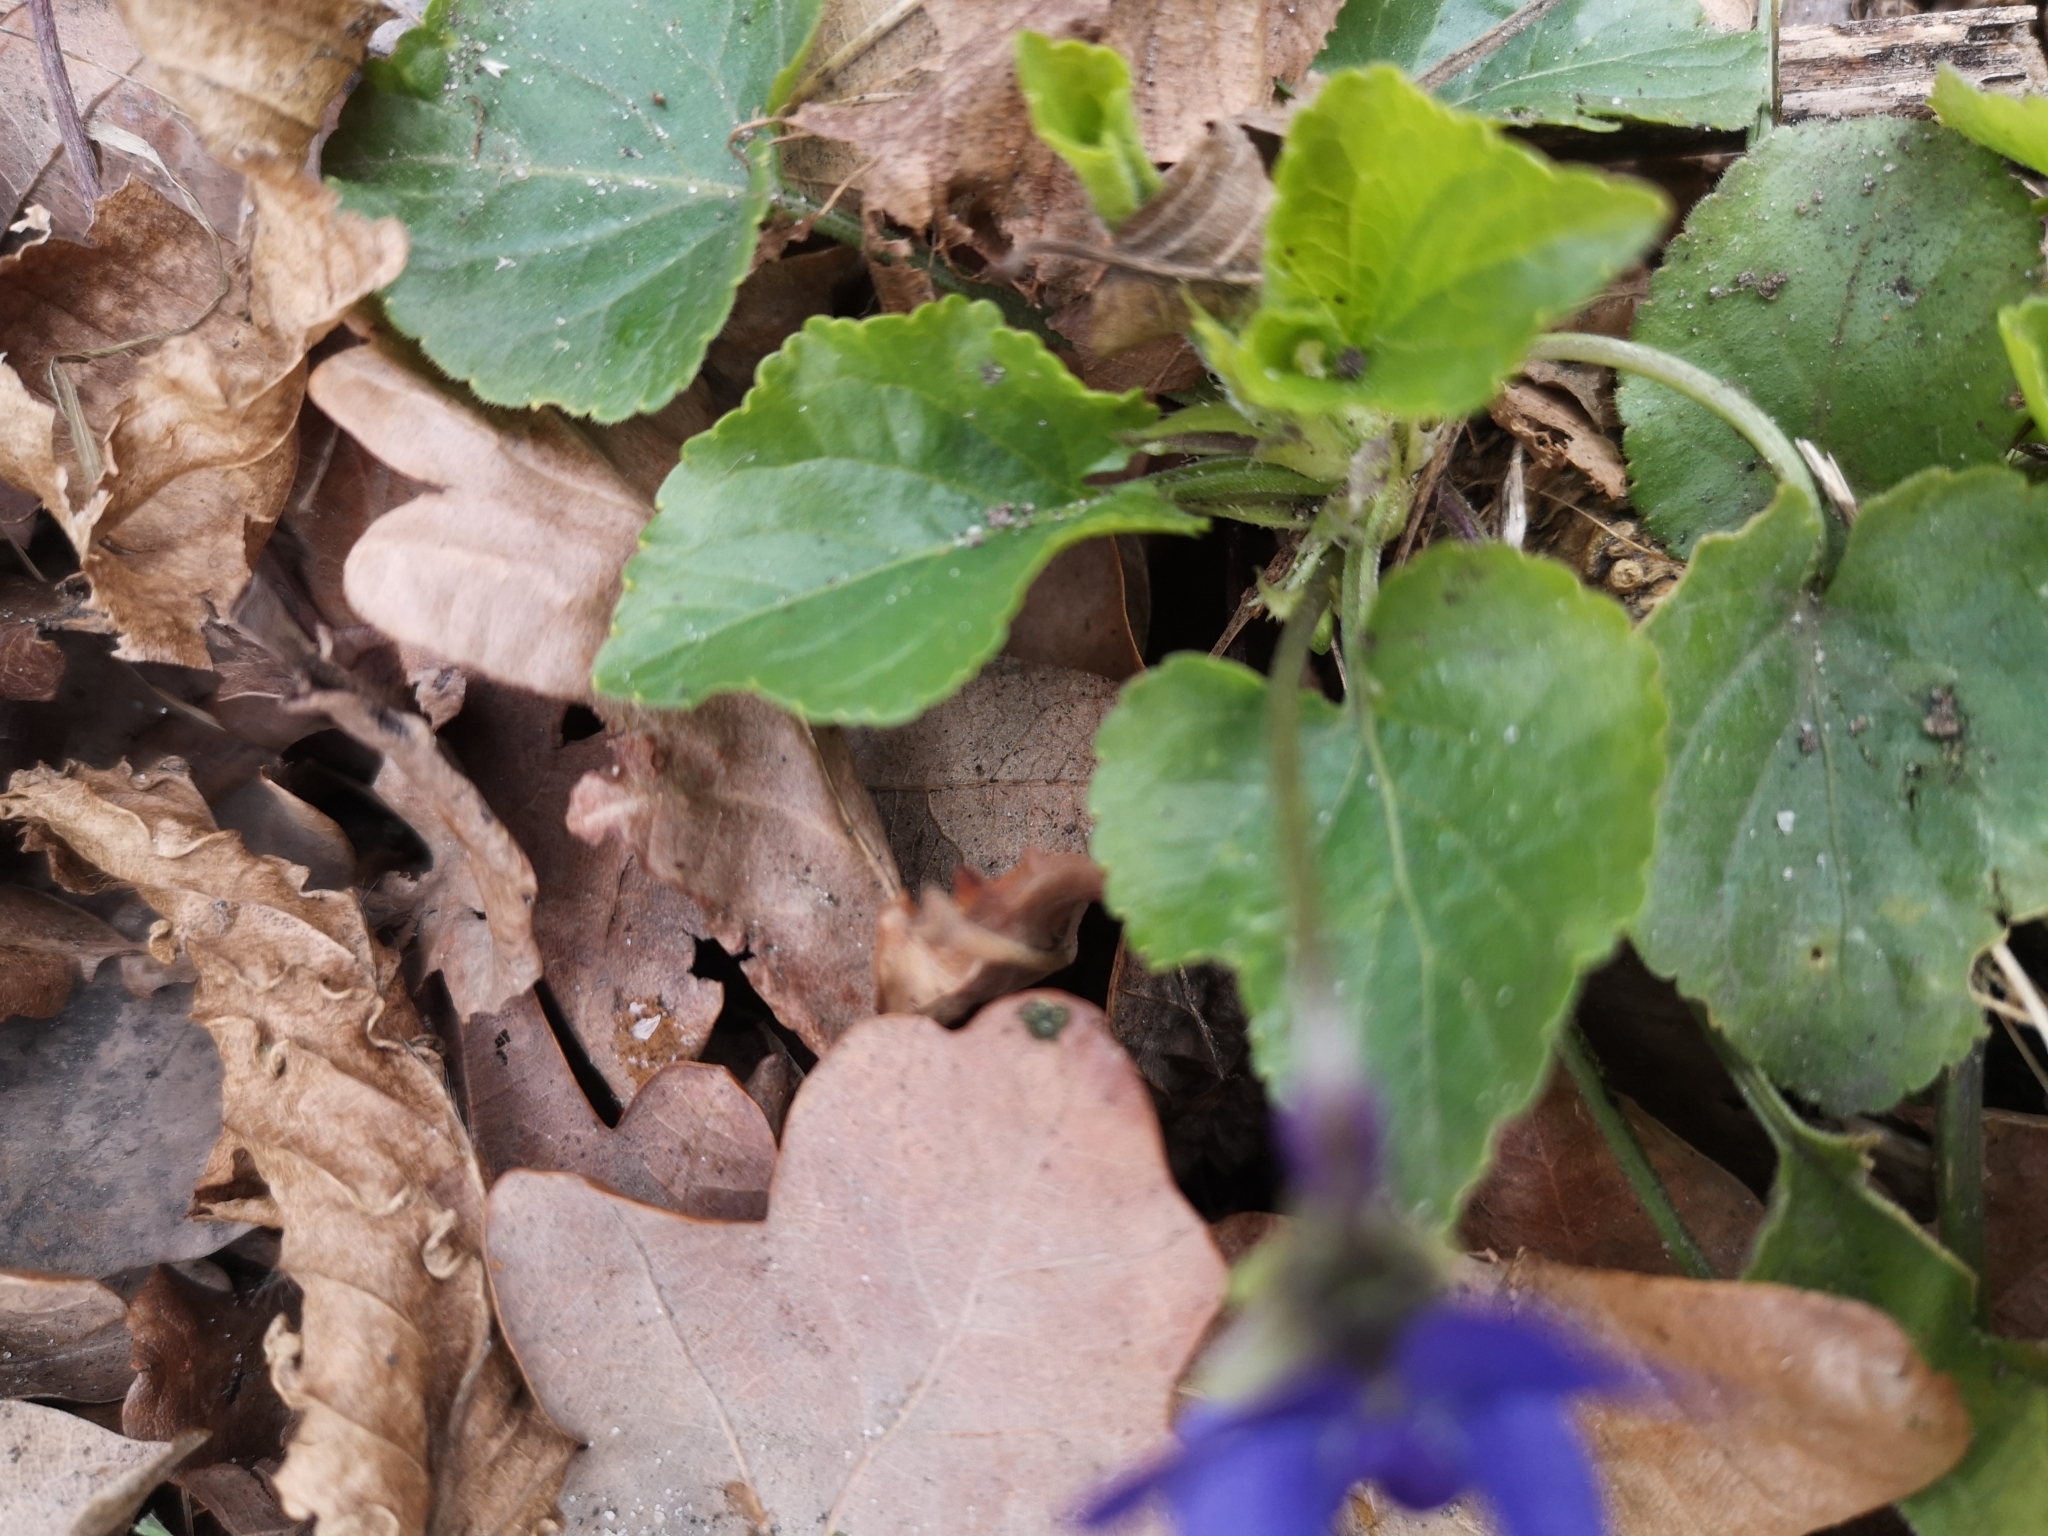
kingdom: Plantae
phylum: Tracheophyta
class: Magnoliopsida
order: Malpighiales
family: Violaceae
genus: Viola
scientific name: Viola odorata
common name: Sweet violet
